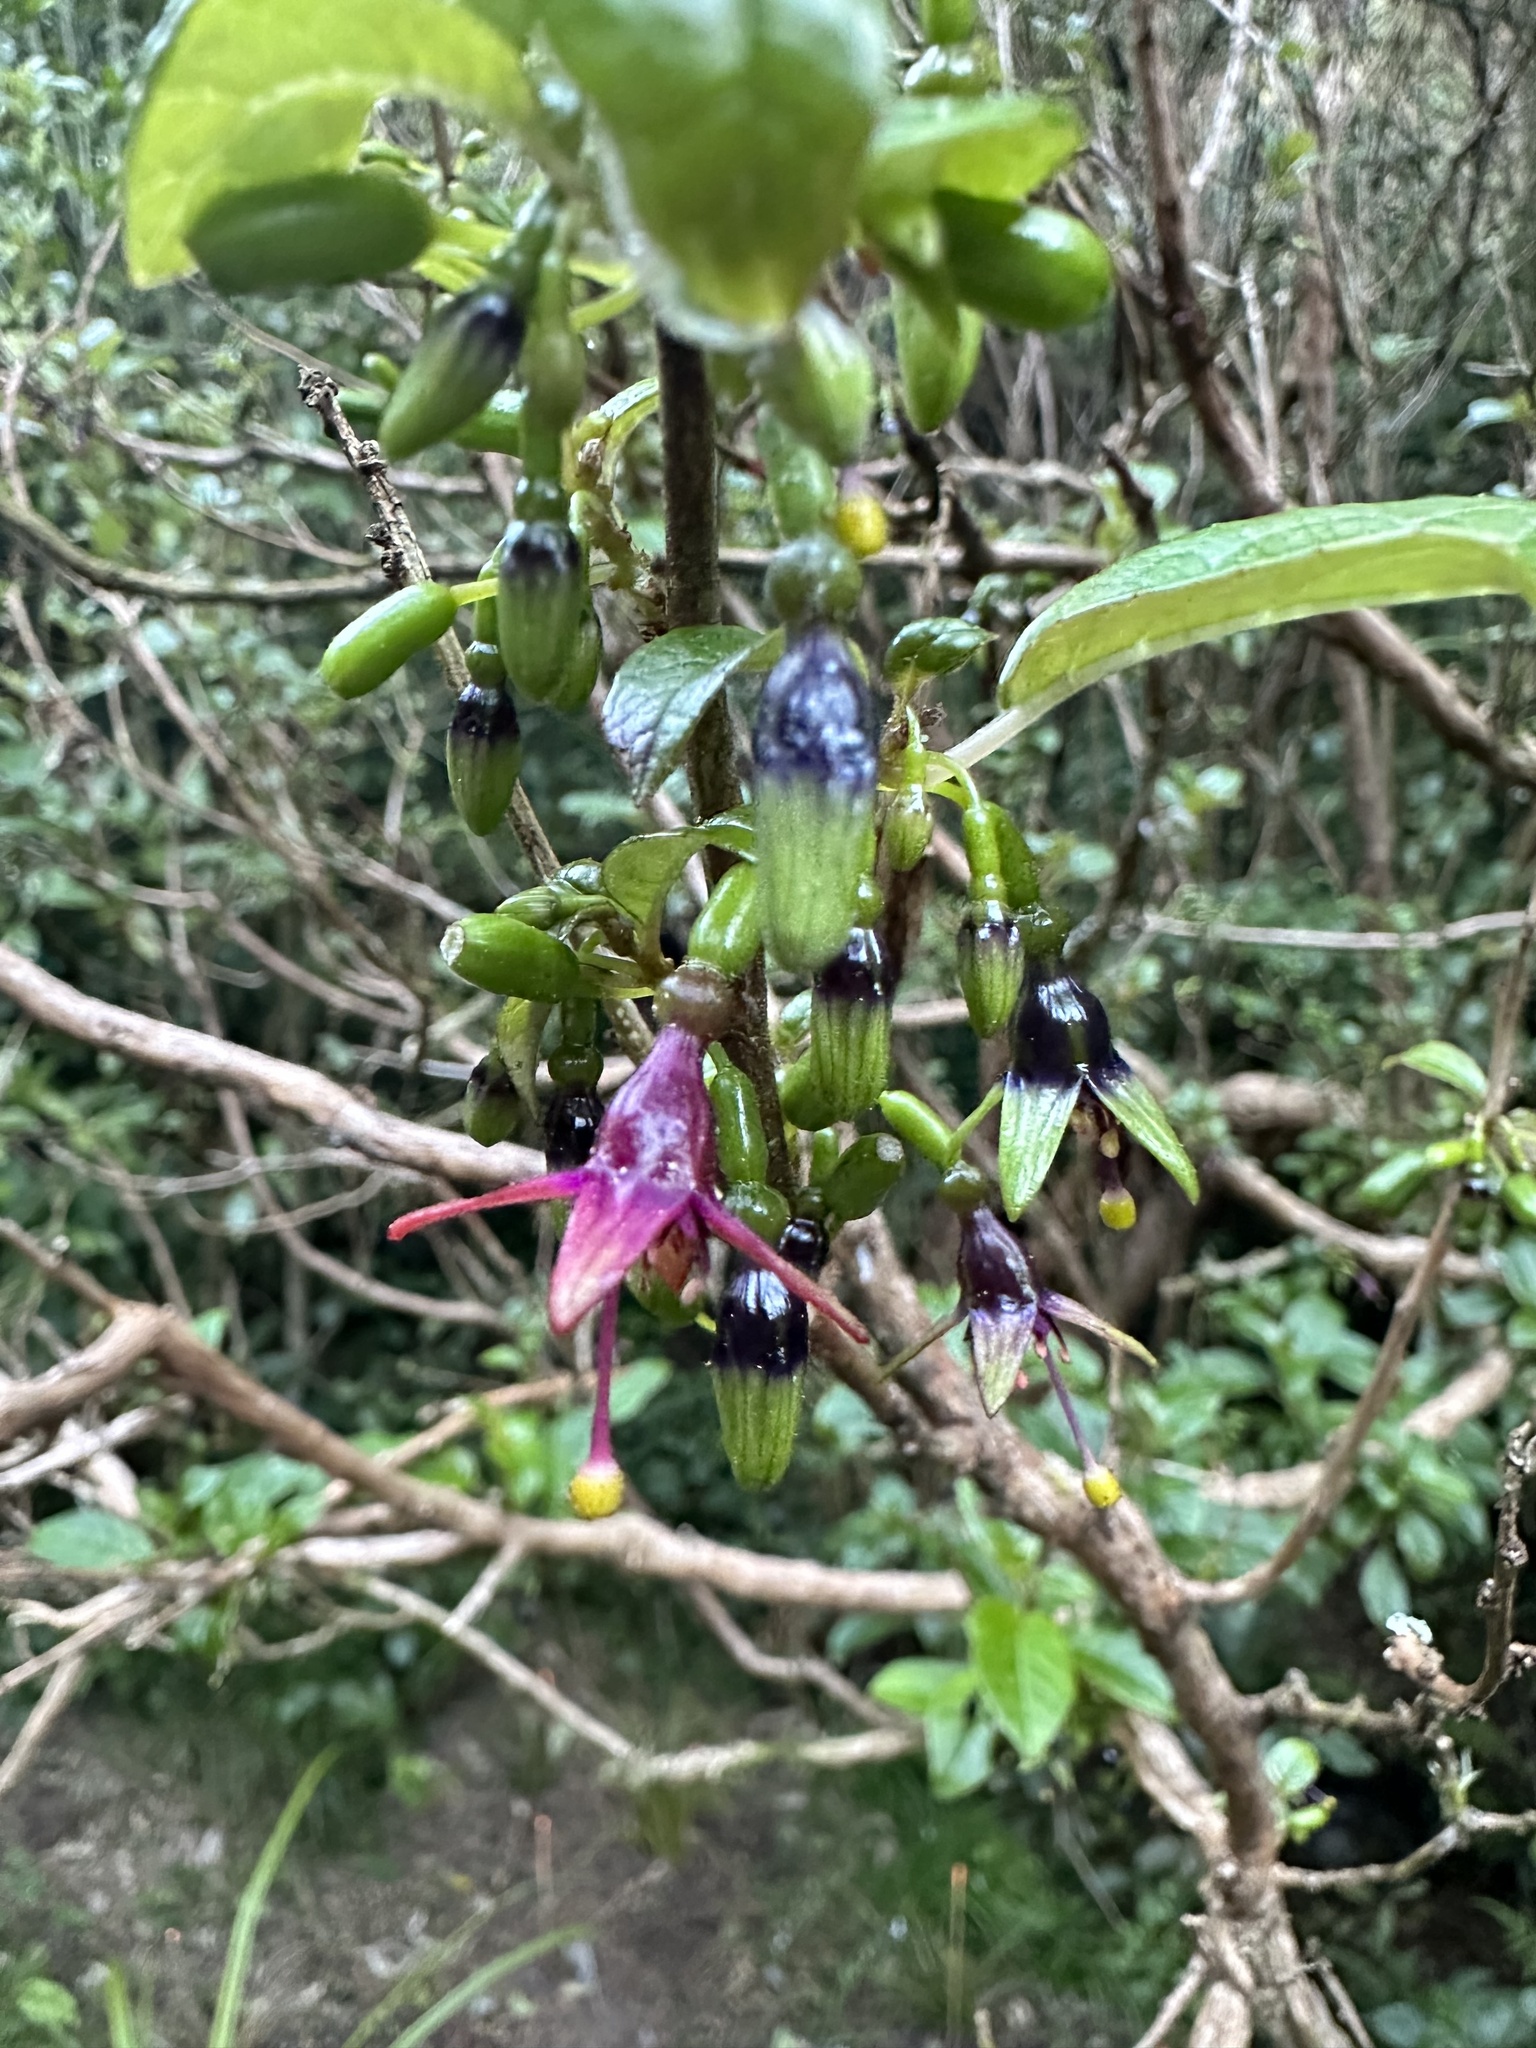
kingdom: Plantae
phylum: Tracheophyta
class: Magnoliopsida
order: Myrtales
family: Onagraceae
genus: Fuchsia
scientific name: Fuchsia excorticata
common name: Tree fuchsia
